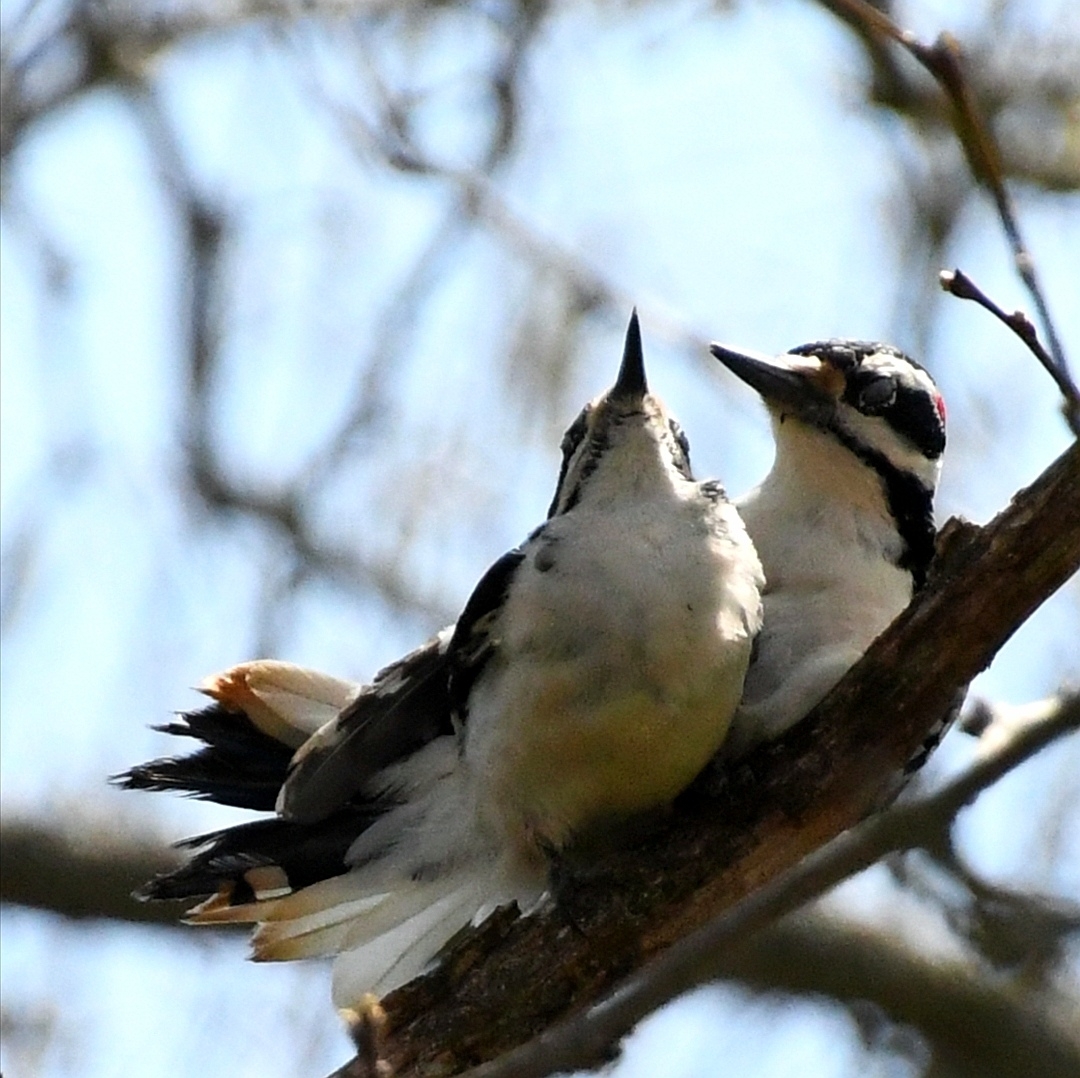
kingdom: Animalia
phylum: Chordata
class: Aves
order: Piciformes
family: Picidae
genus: Leuconotopicus
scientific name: Leuconotopicus villosus
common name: Hairy woodpecker
